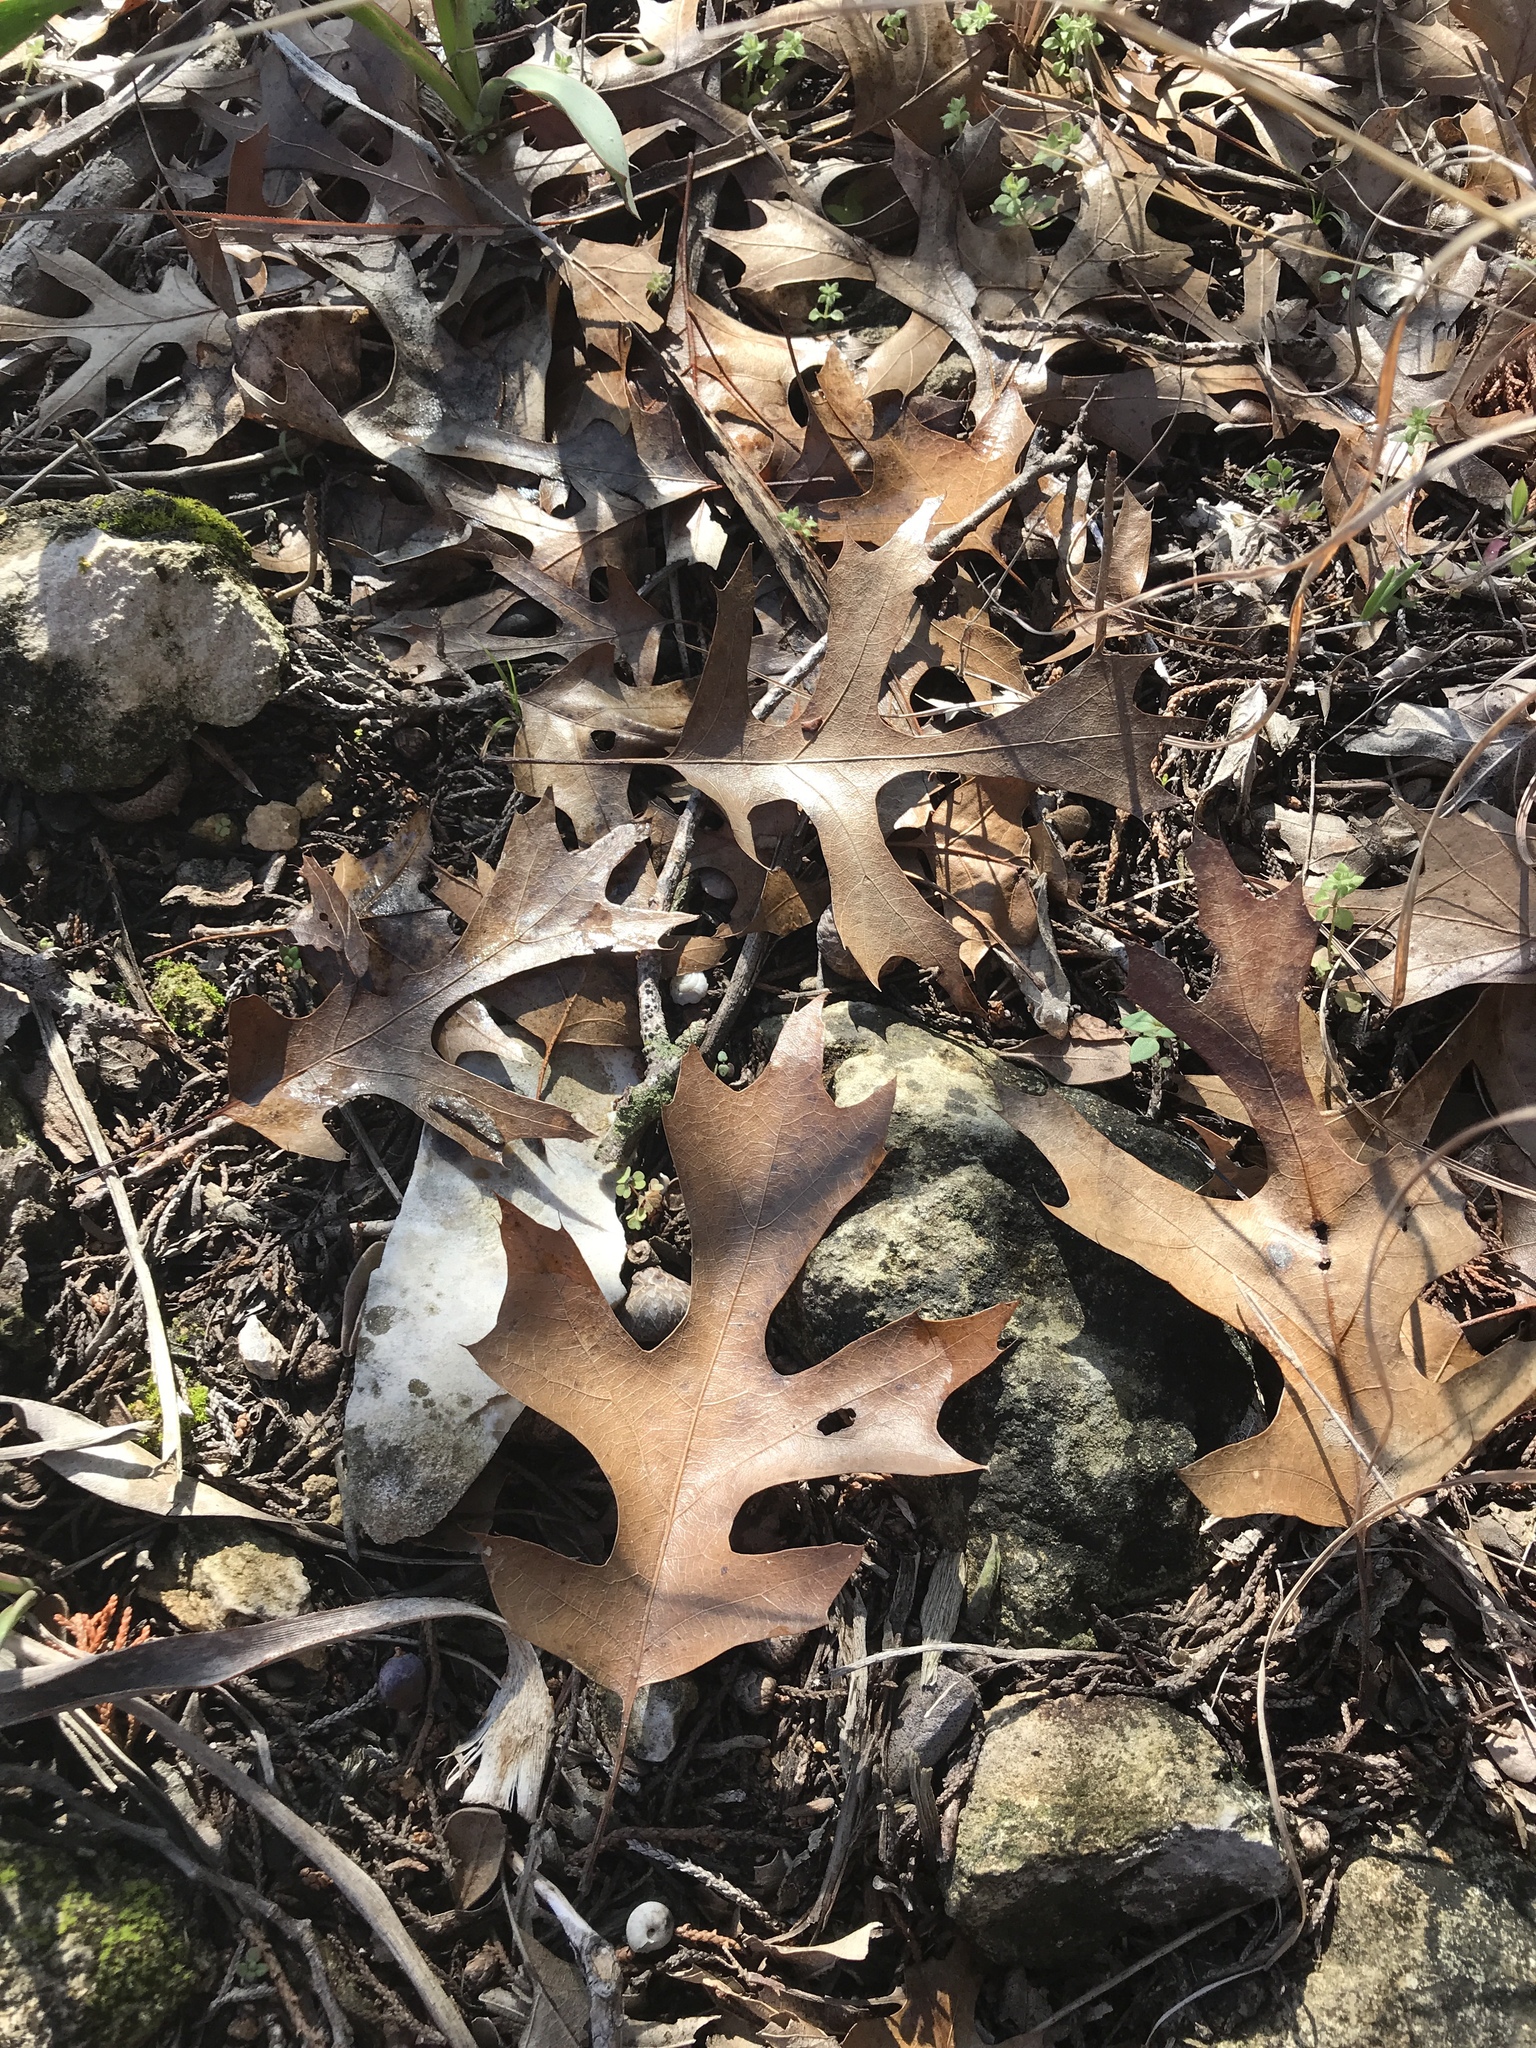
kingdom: Plantae
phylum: Tracheophyta
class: Magnoliopsida
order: Fagales
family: Fagaceae
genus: Quercus
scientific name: Quercus buckleyi
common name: Buckley oak
